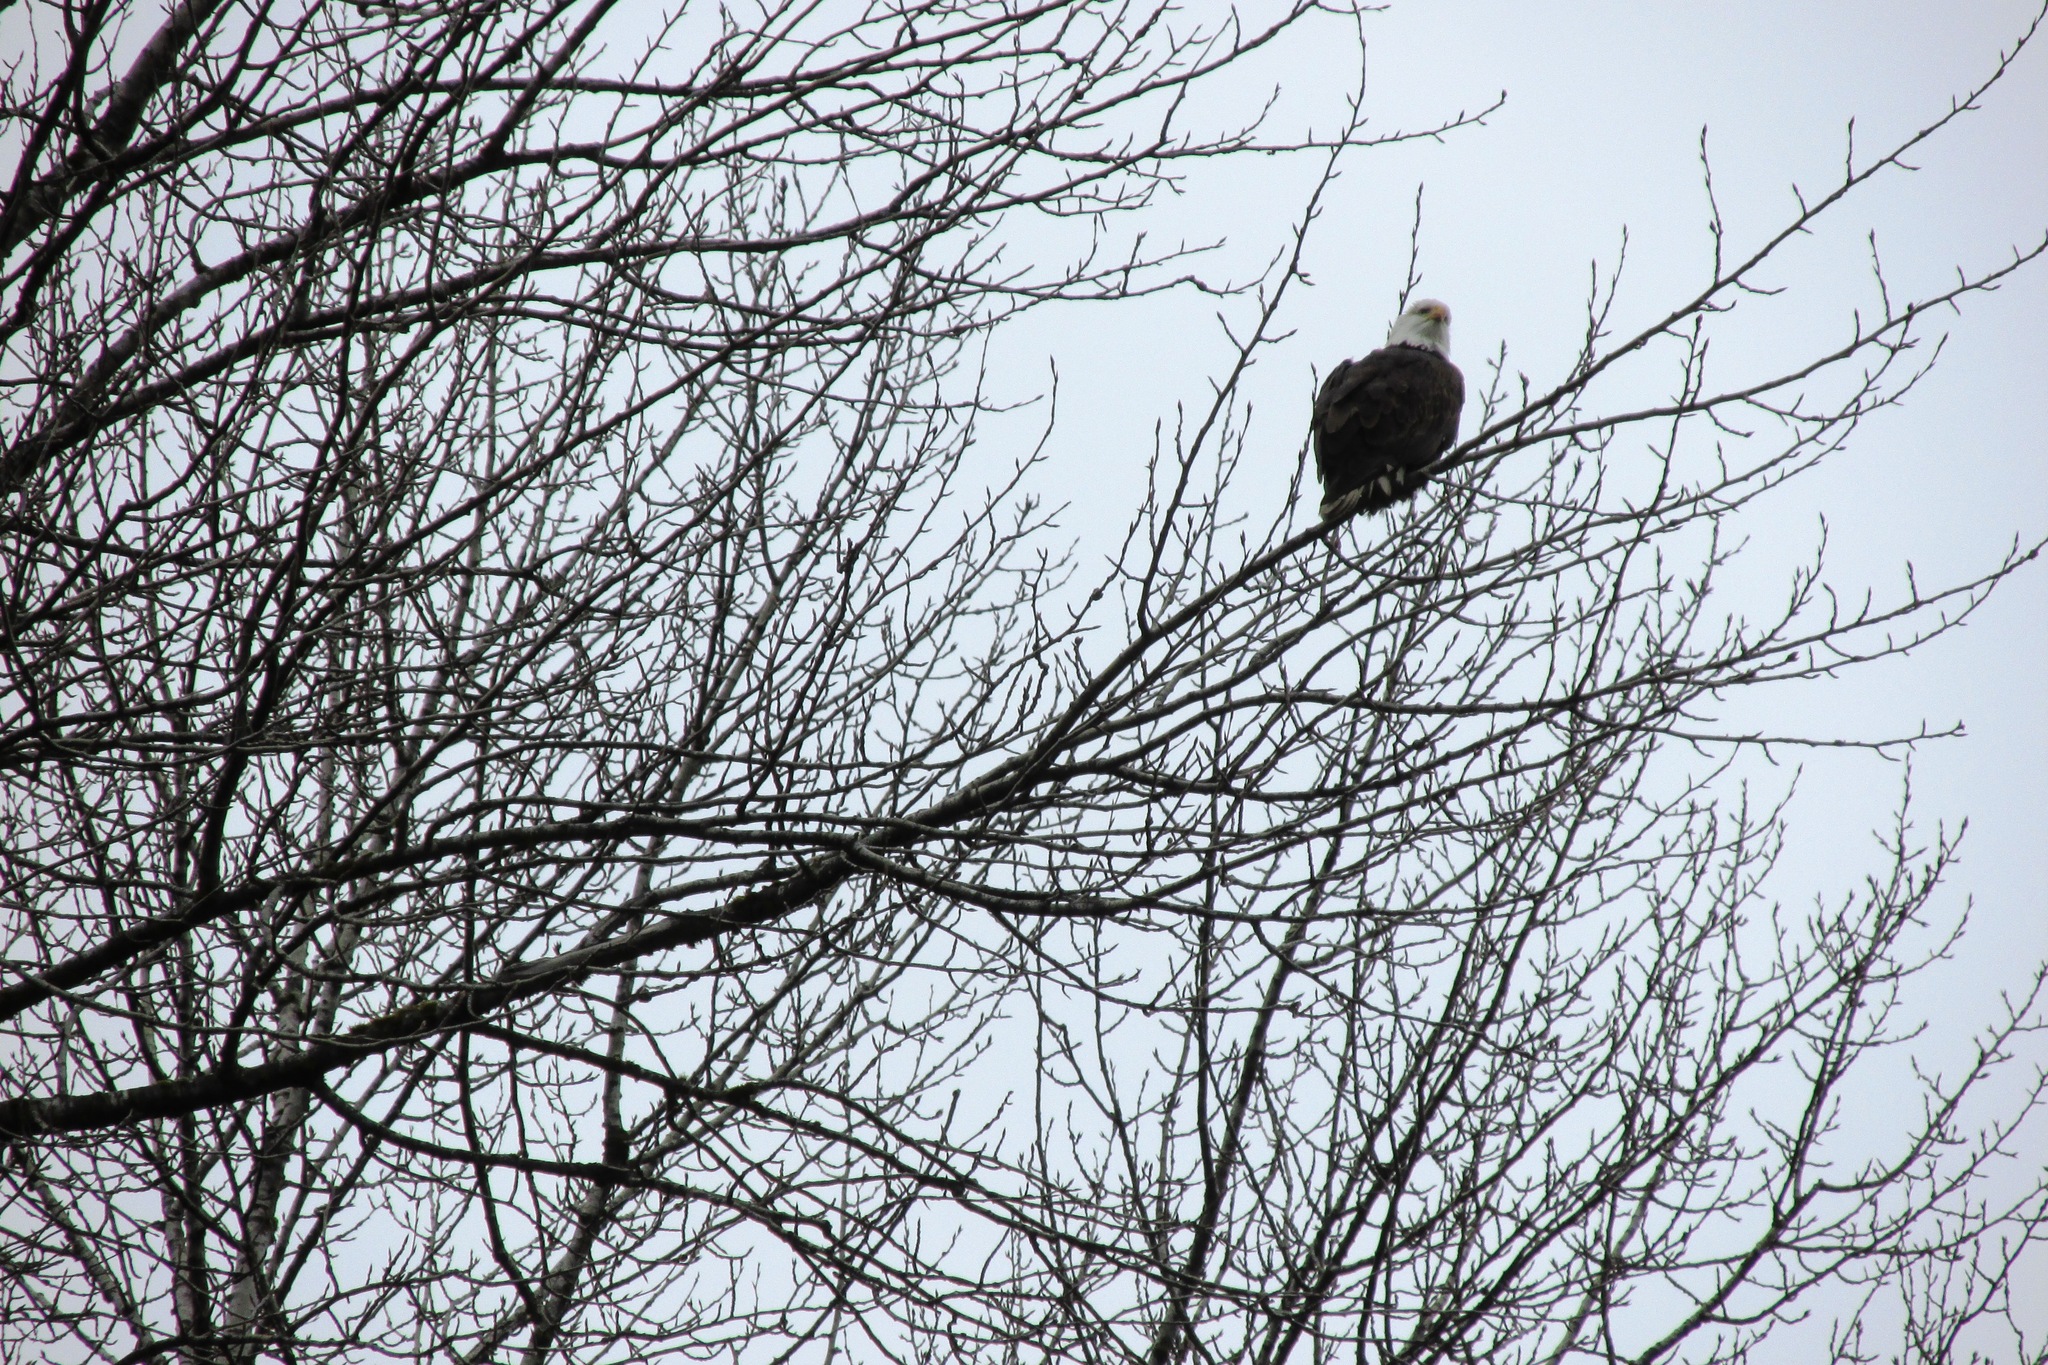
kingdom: Animalia
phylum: Chordata
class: Aves
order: Accipitriformes
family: Accipitridae
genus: Haliaeetus
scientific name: Haliaeetus leucocephalus
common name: Bald eagle
